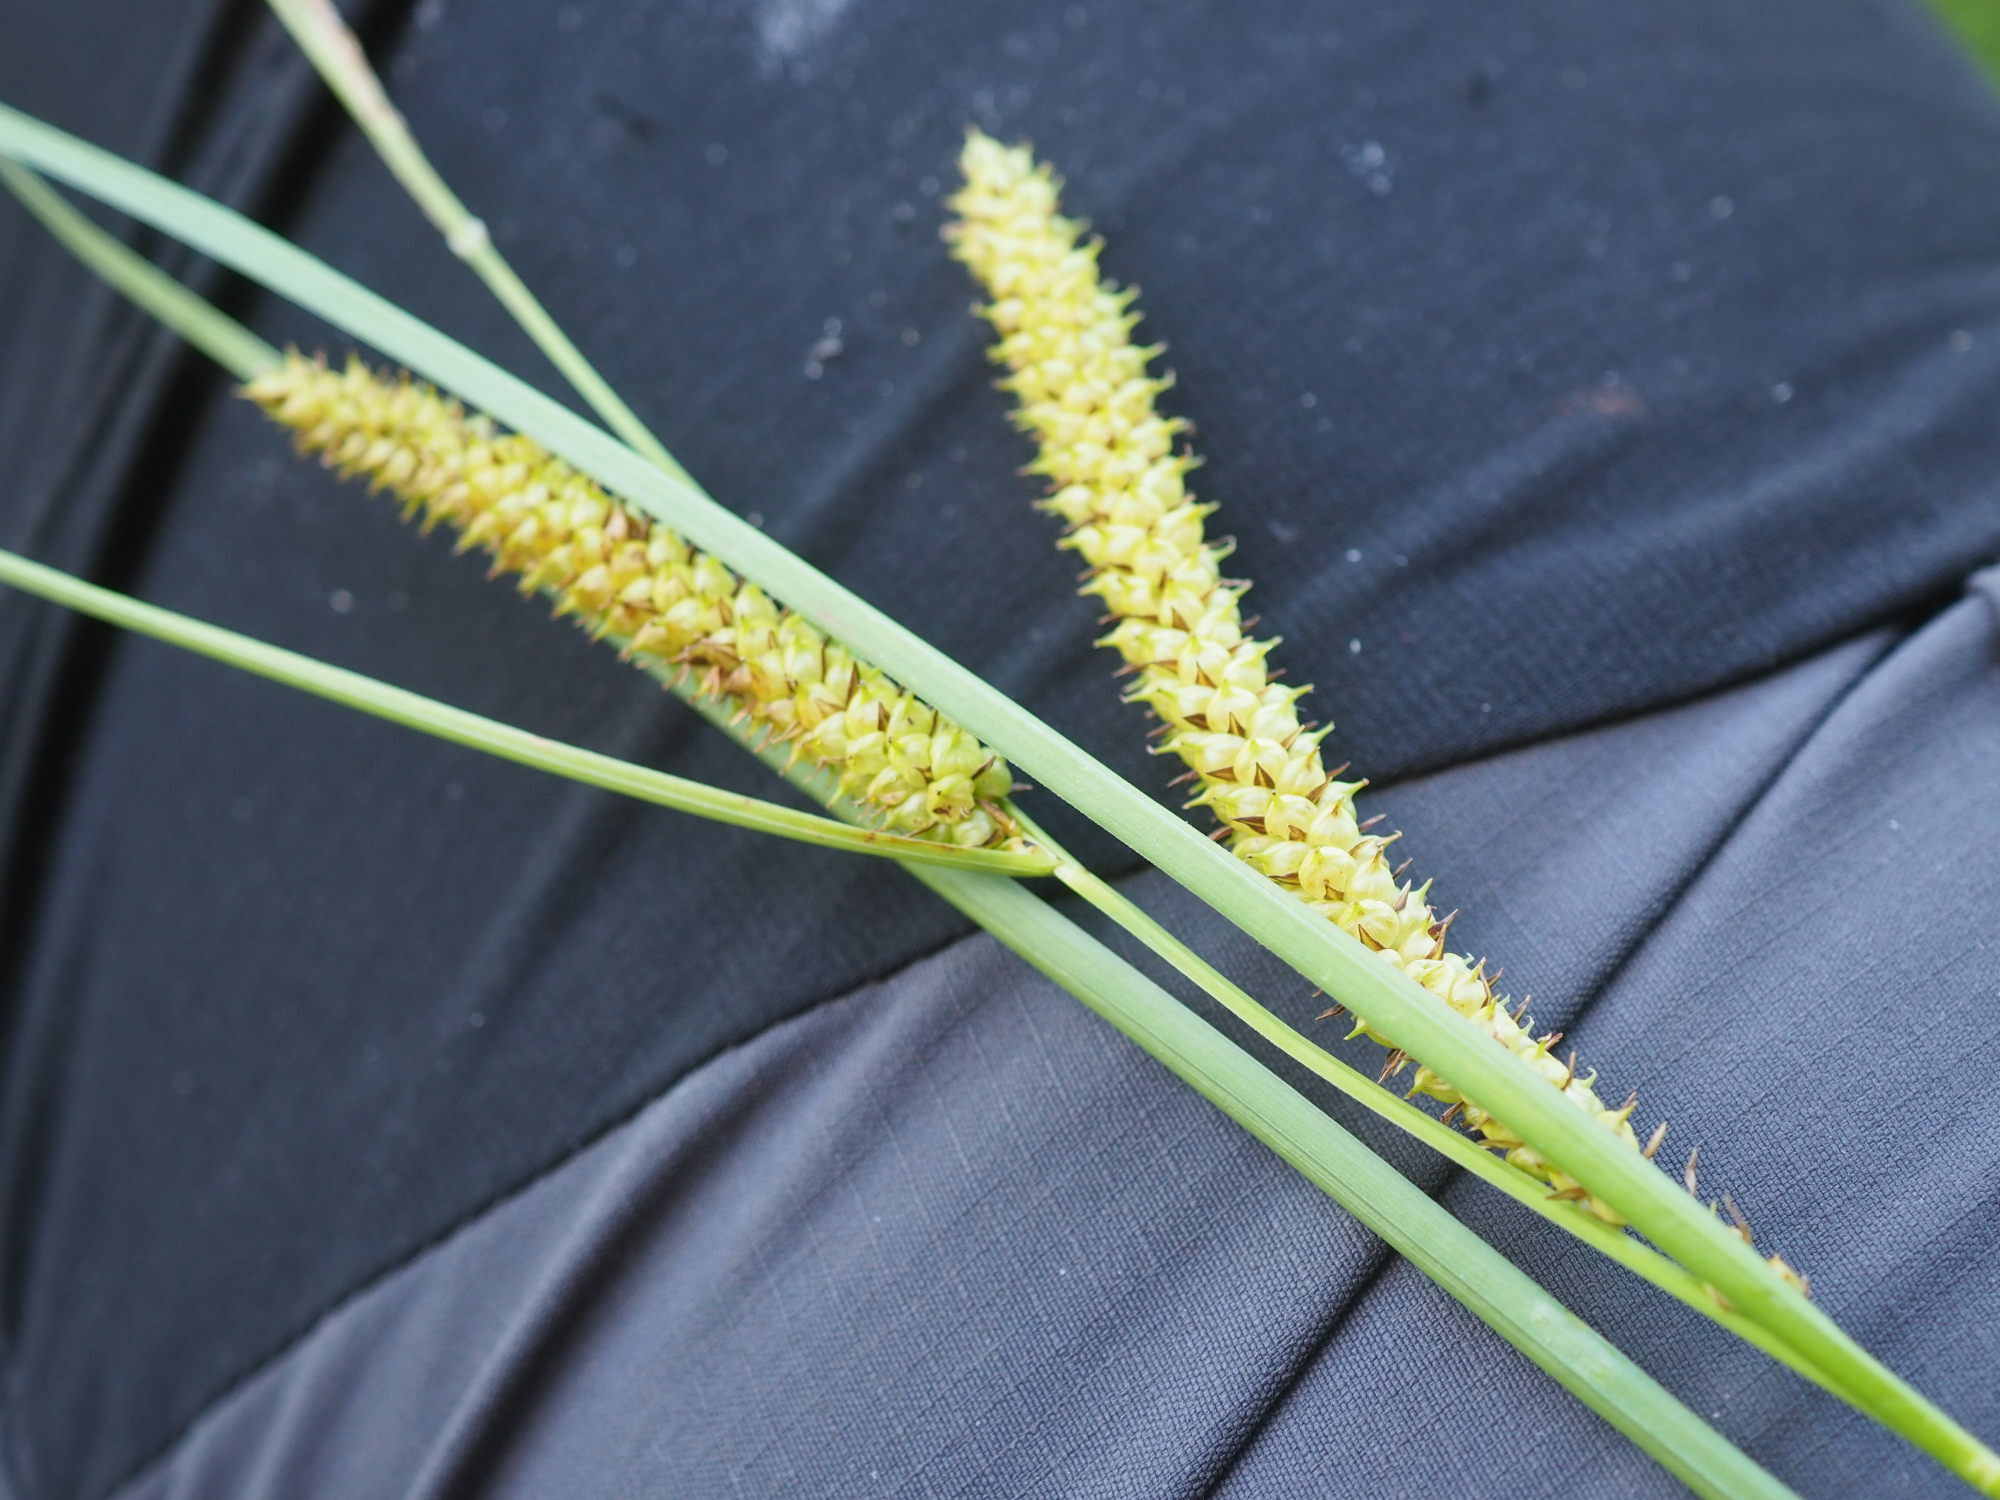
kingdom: Plantae
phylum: Tracheophyta
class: Liliopsida
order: Poales
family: Cyperaceae
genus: Carex
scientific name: Carex rostrata
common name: Bottle sedge
